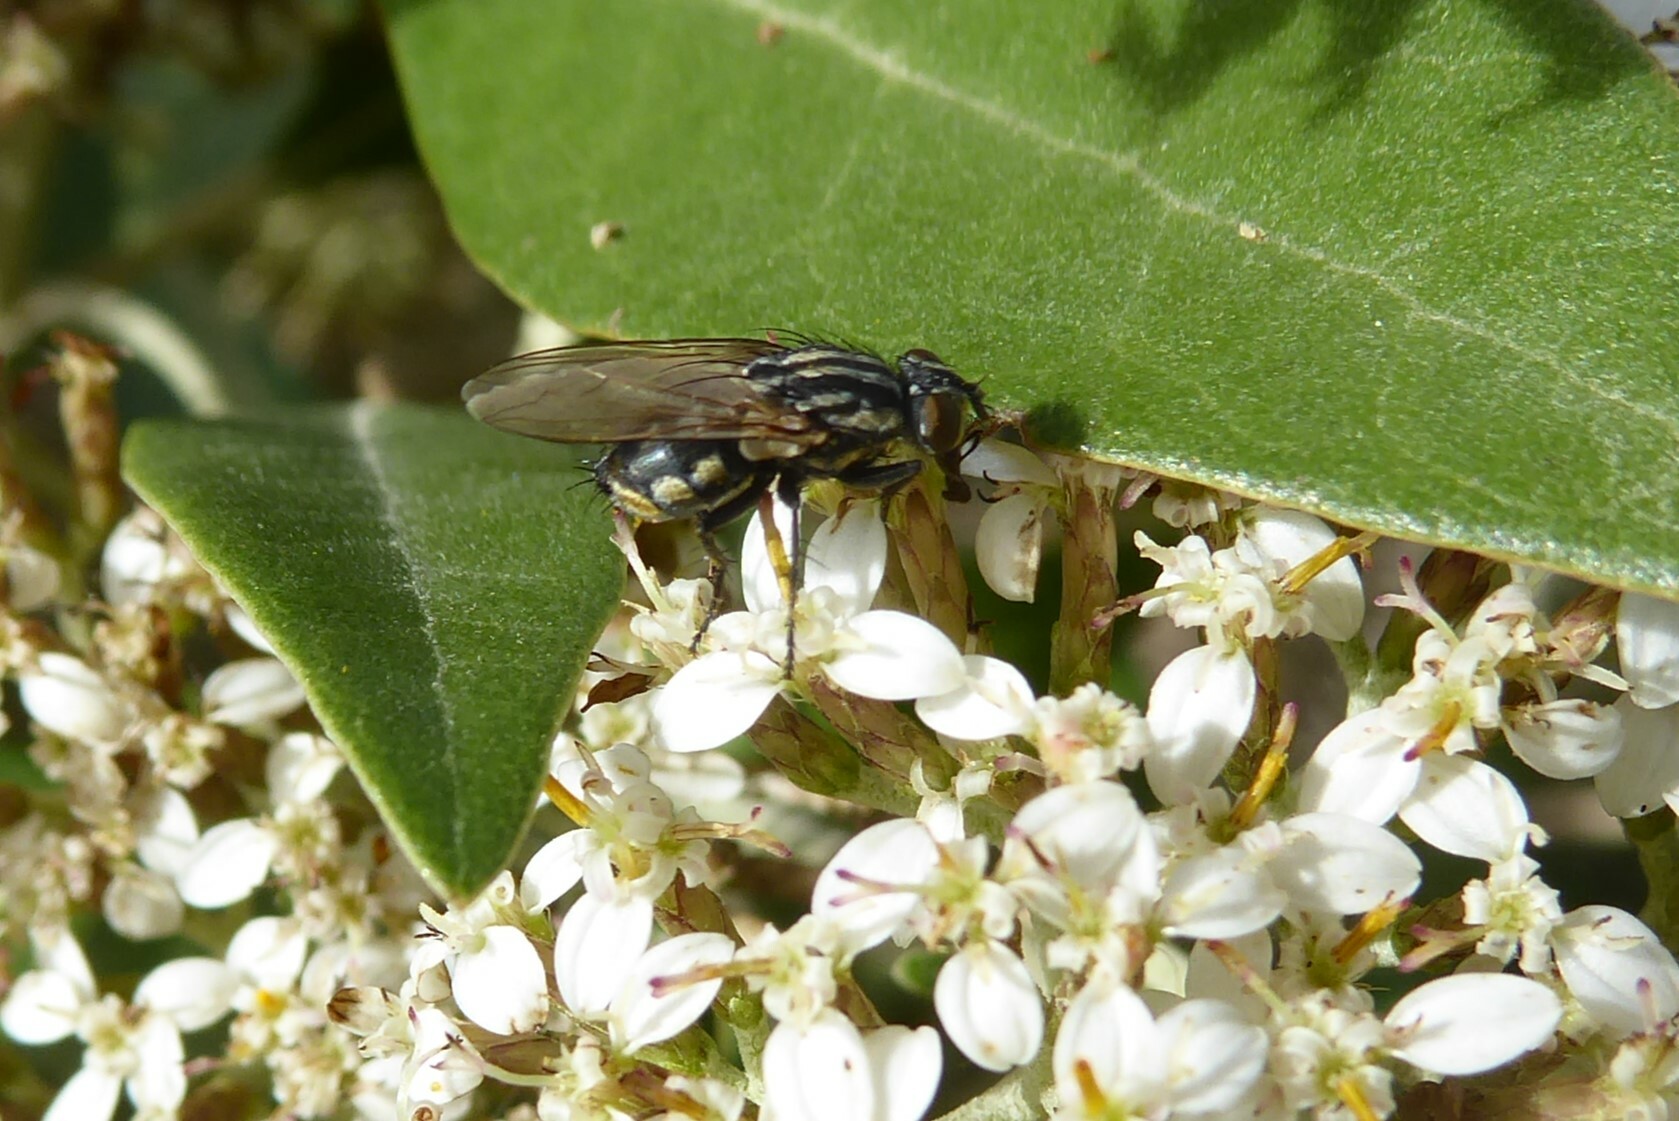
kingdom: Animalia
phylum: Arthropoda
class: Insecta
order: Diptera
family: Sarcophagidae
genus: Oxysarcodexia
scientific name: Oxysarcodexia varia
